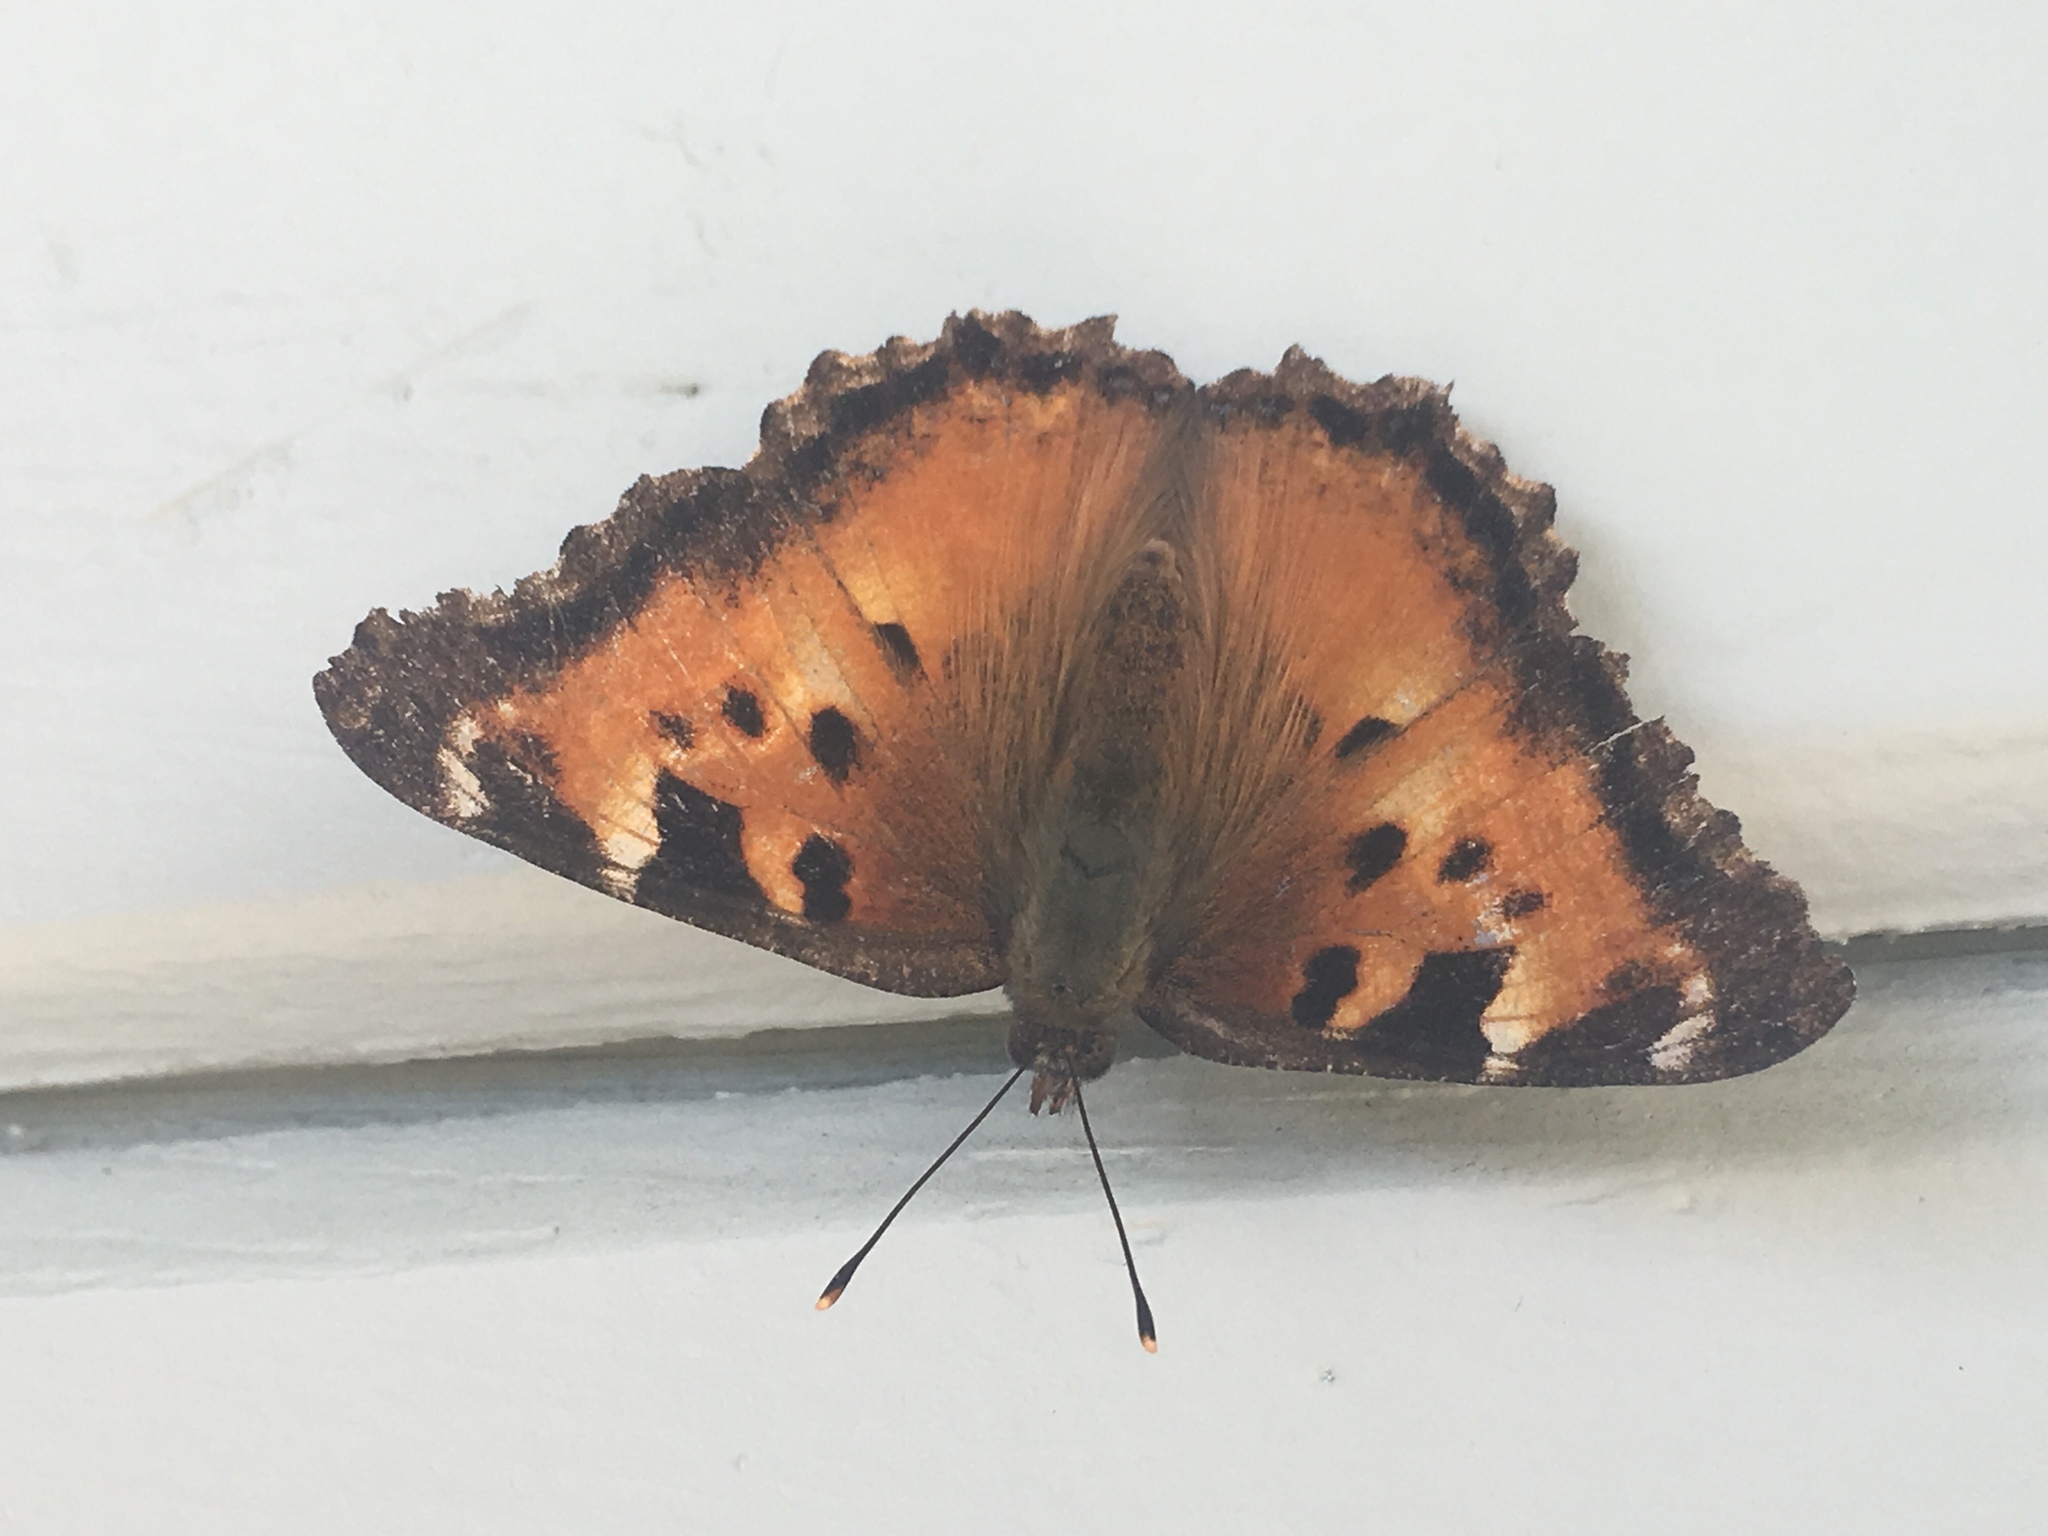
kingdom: Animalia
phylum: Arthropoda
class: Insecta
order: Lepidoptera
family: Nymphalidae
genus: Nymphalis
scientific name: Nymphalis californica
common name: California tortoiseshell
